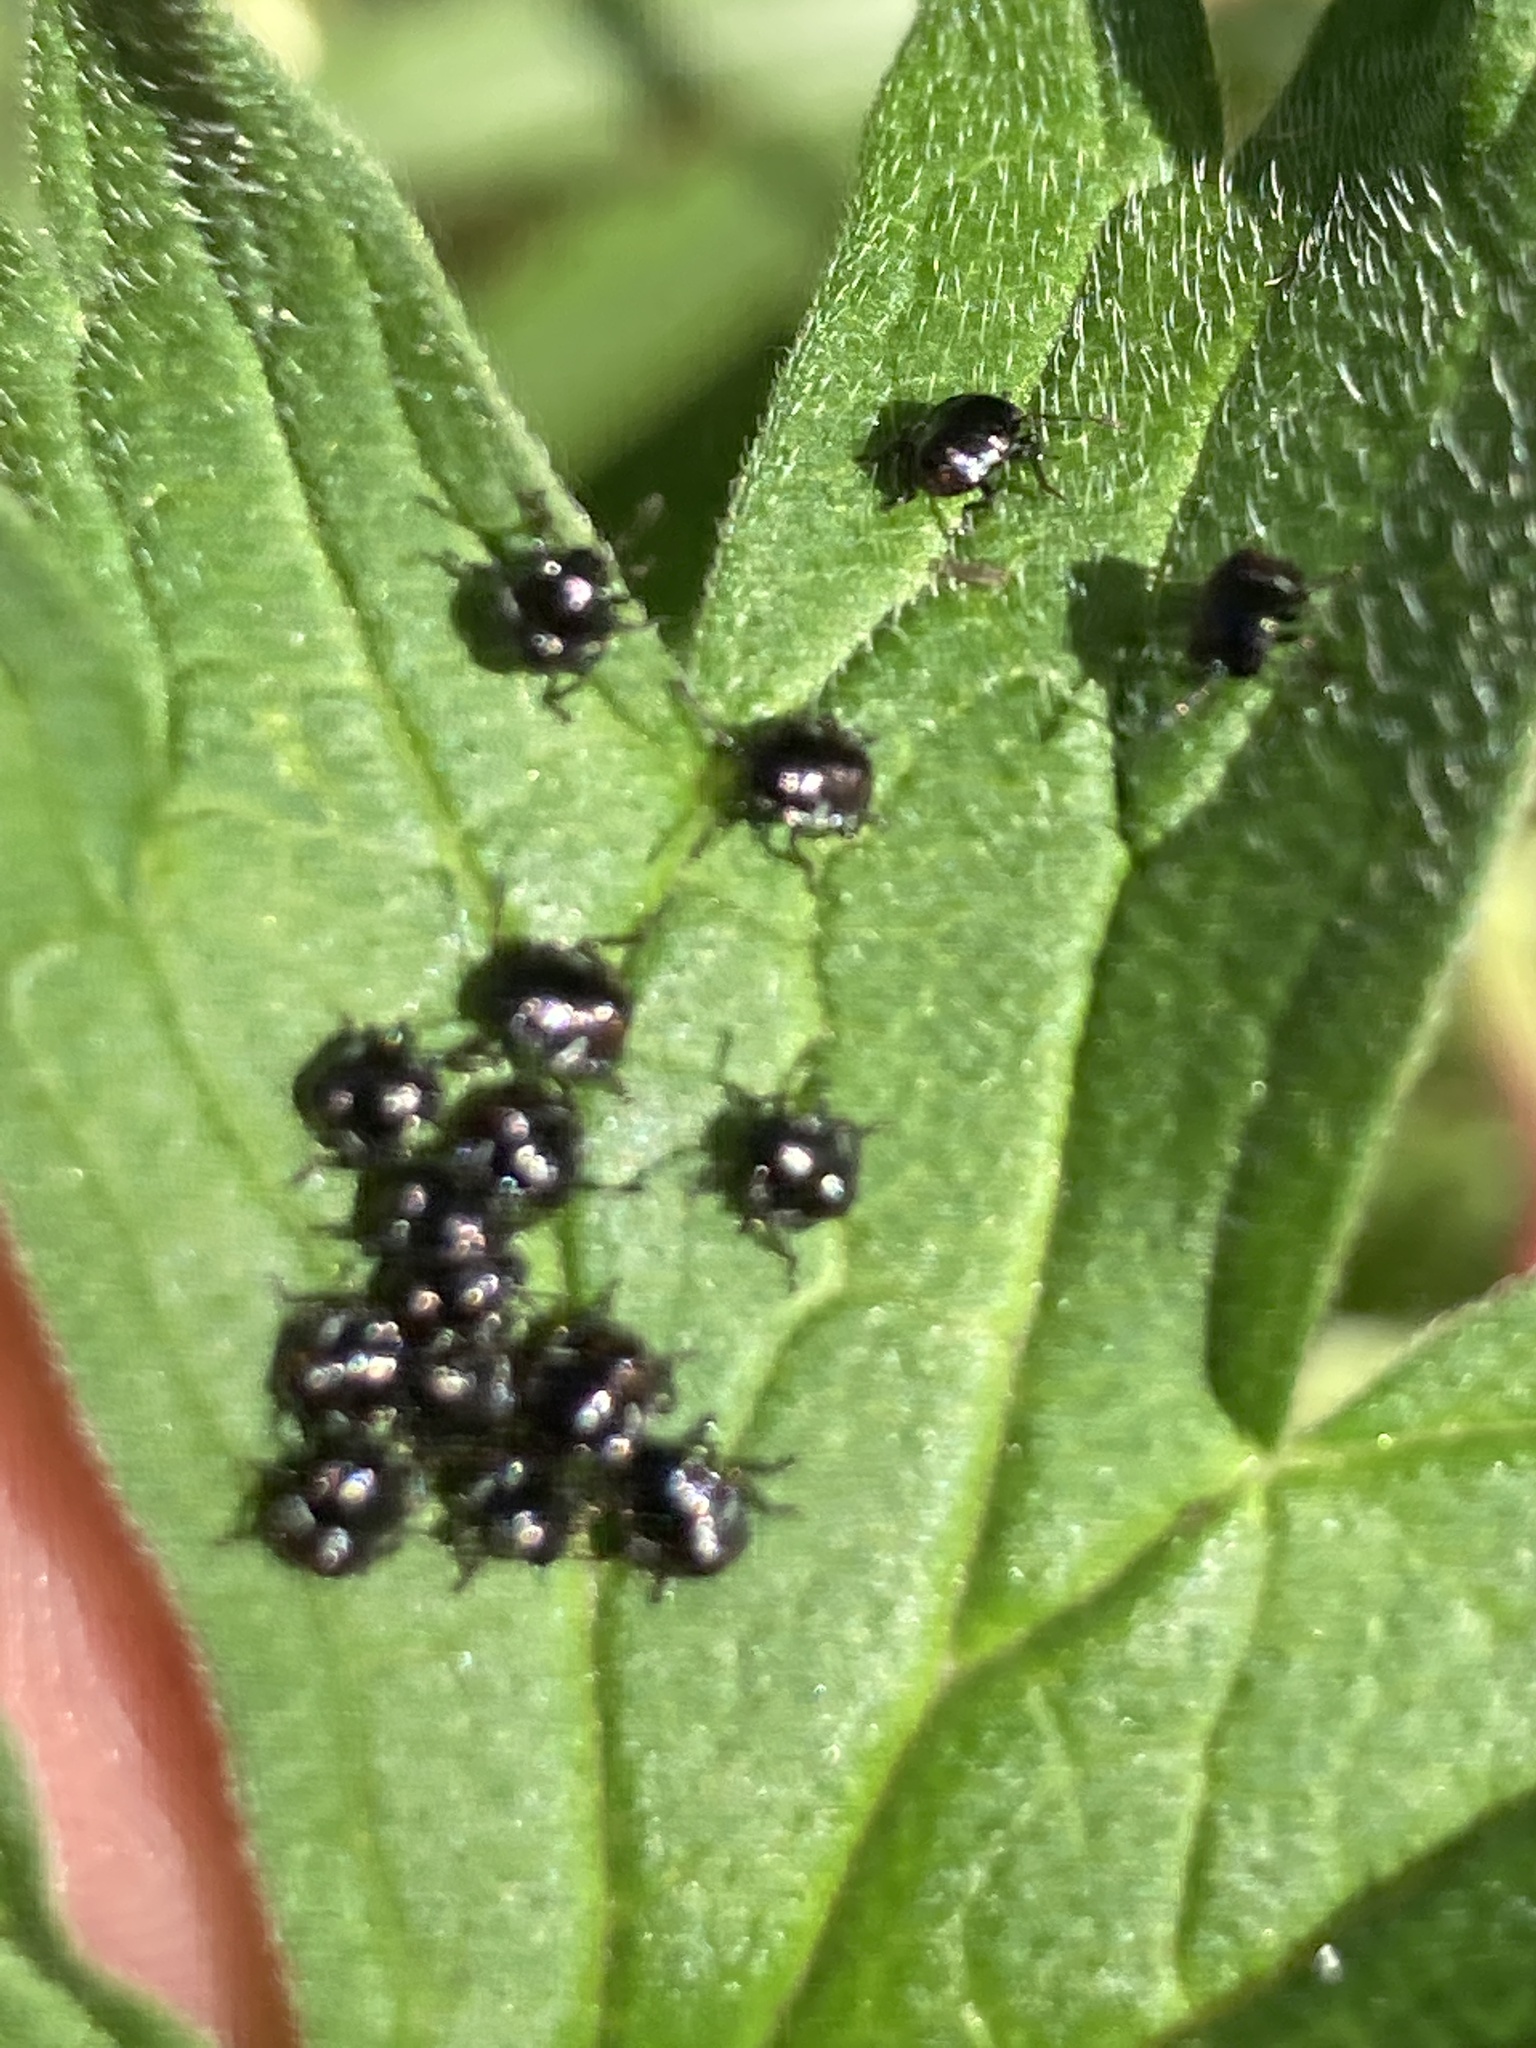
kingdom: Animalia
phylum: Arthropoda
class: Insecta
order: Hemiptera
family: Pentatomidae
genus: Nezara
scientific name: Nezara viridula
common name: Southern green stink bug
